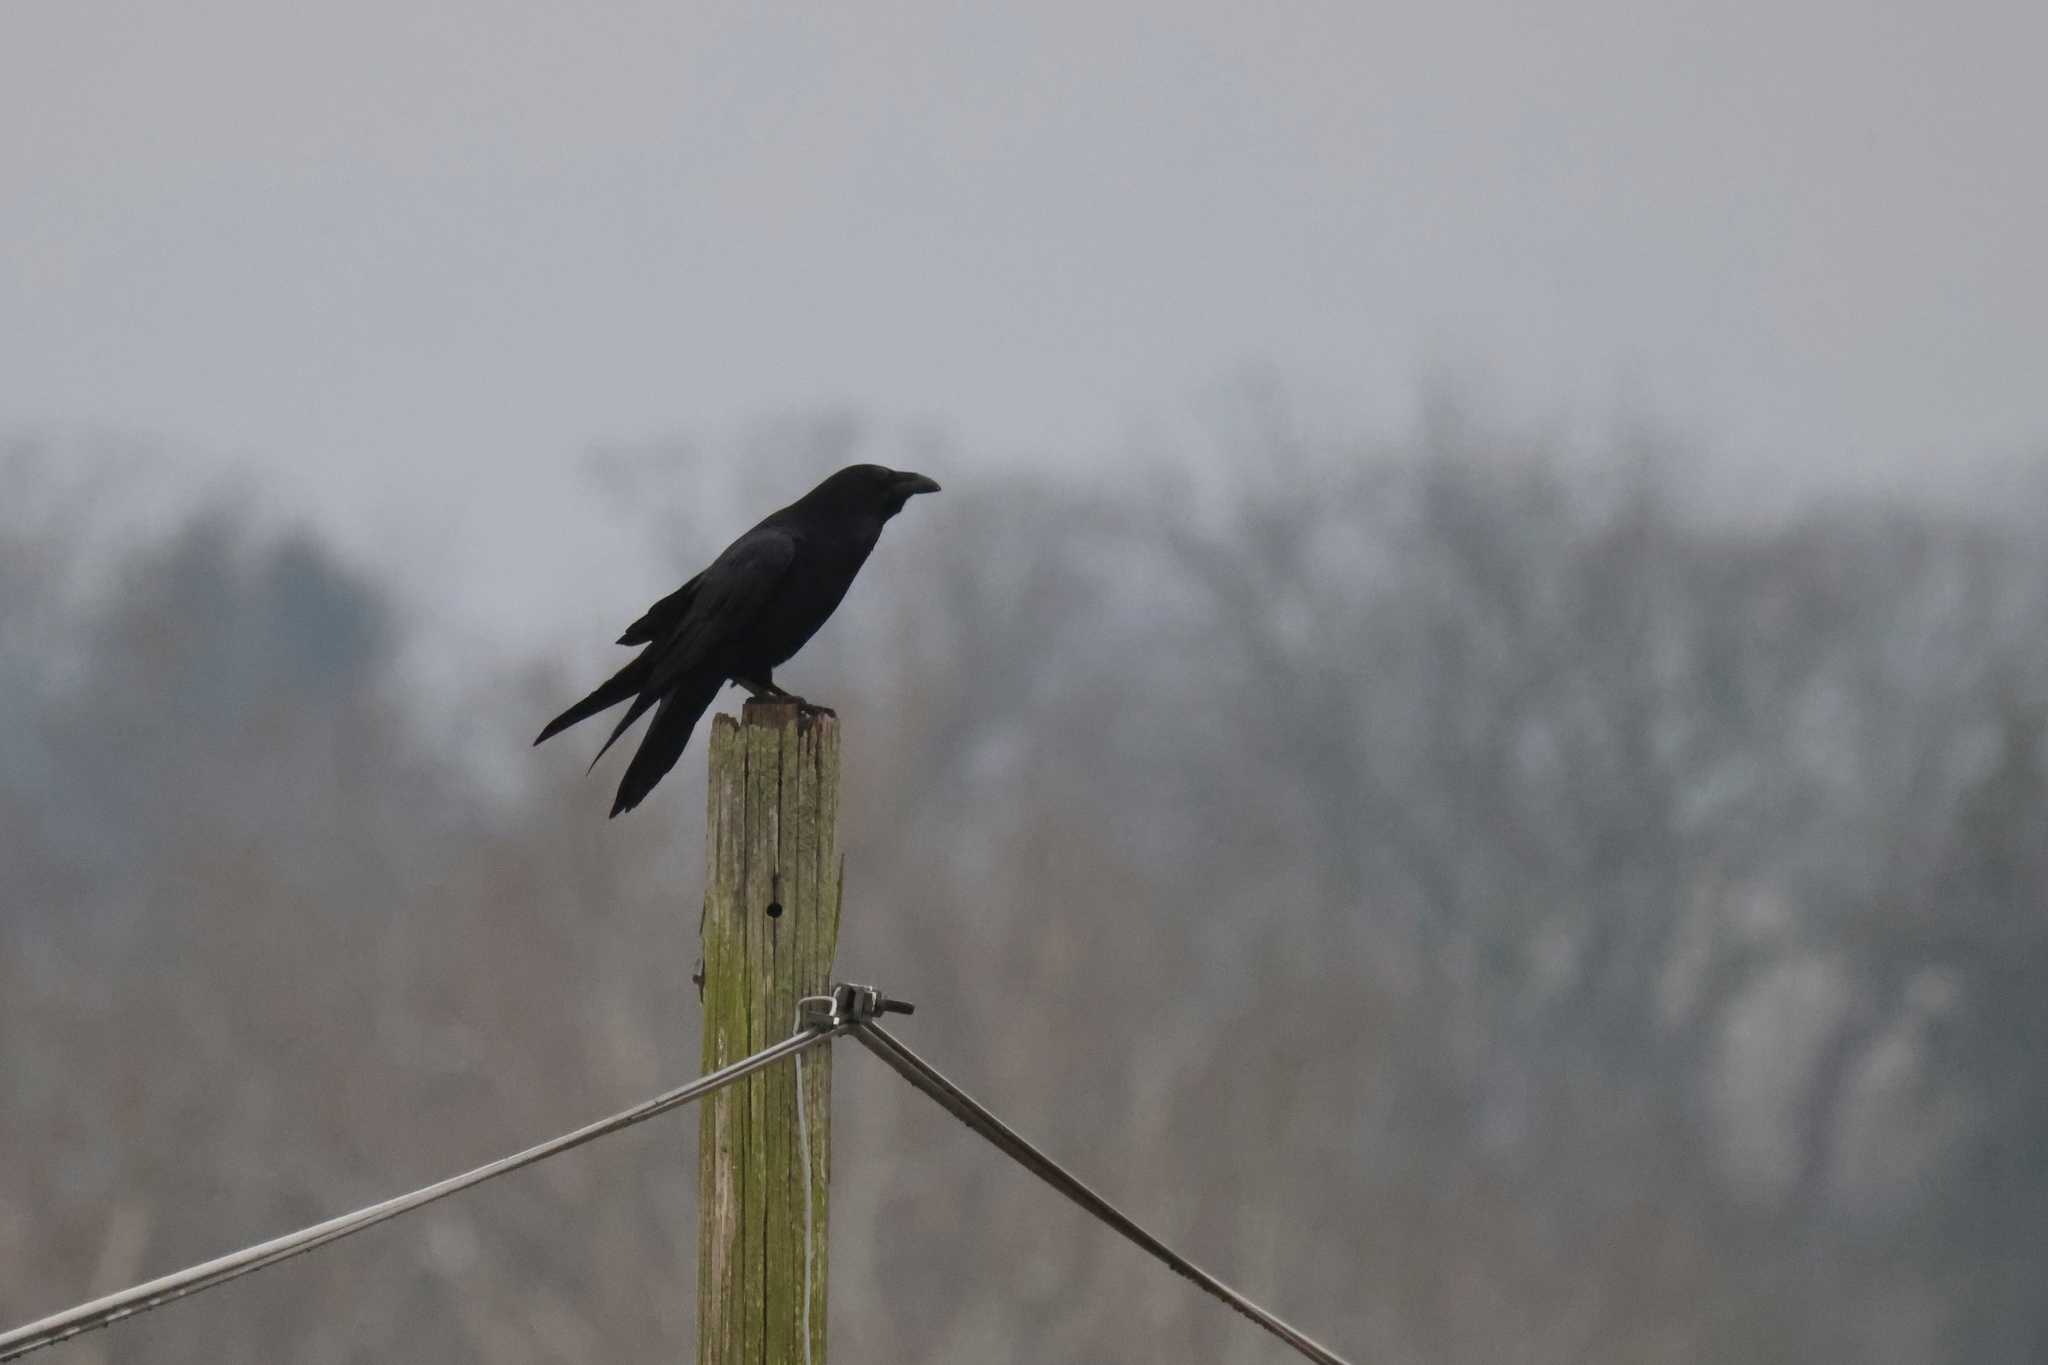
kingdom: Animalia
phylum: Chordata
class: Aves
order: Passeriformes
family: Corvidae
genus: Corvus
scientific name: Corvus corax
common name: Common raven
